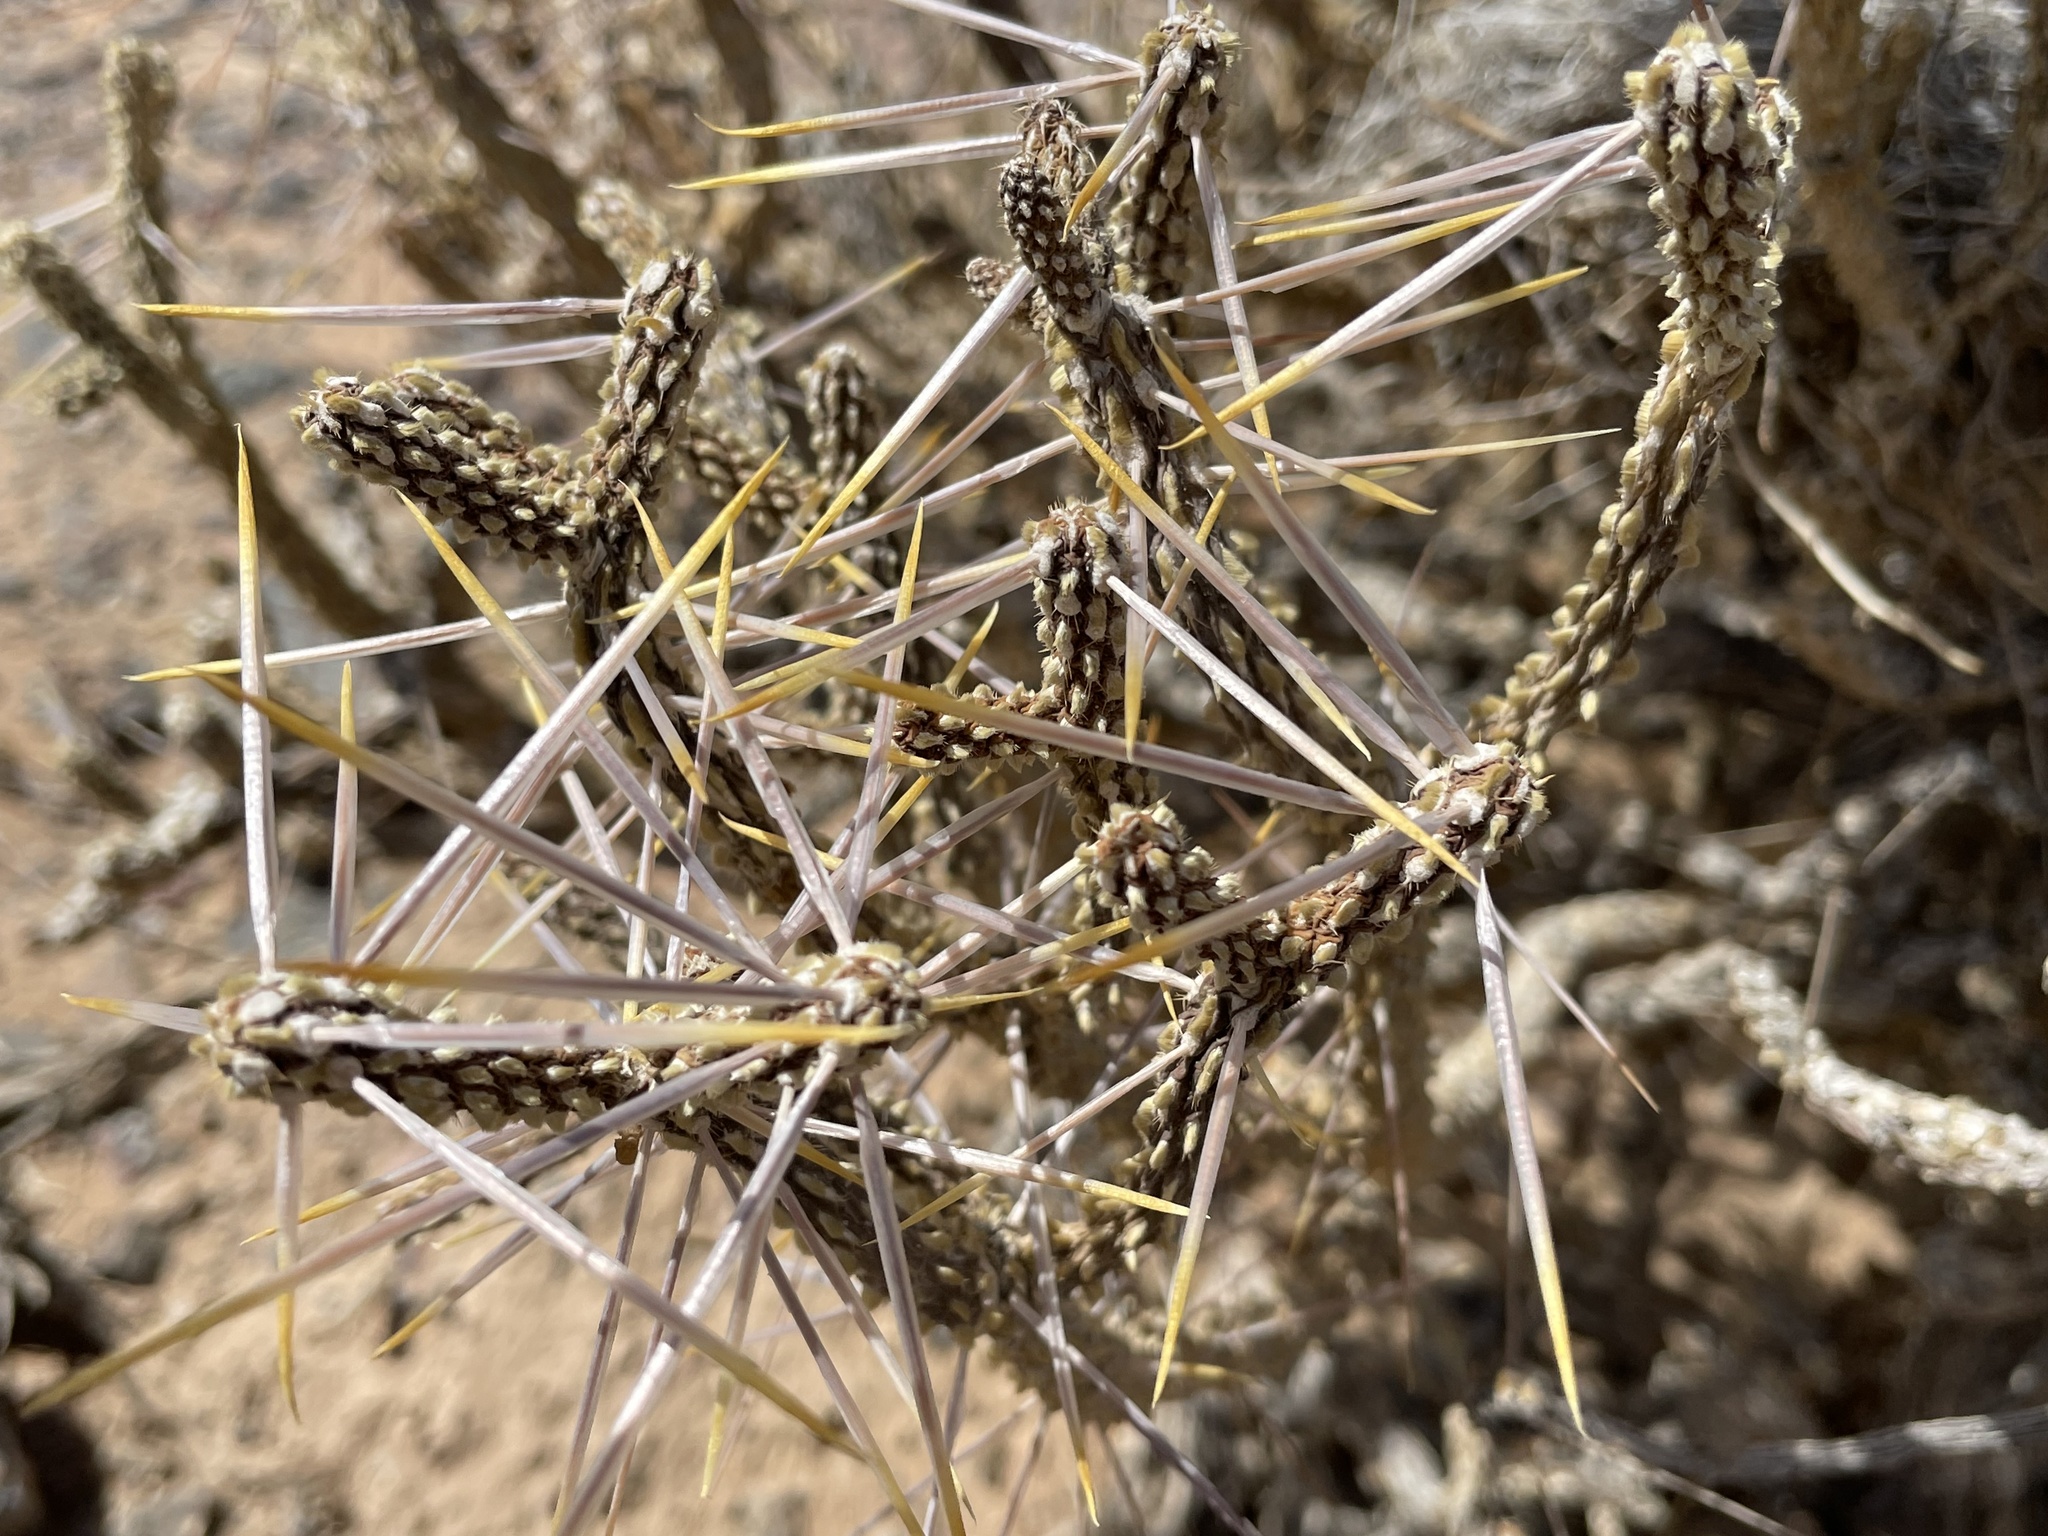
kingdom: Plantae
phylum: Tracheophyta
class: Magnoliopsida
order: Caryophyllales
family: Cactaceae
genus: Cylindropuntia
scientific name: Cylindropuntia ramosissima
